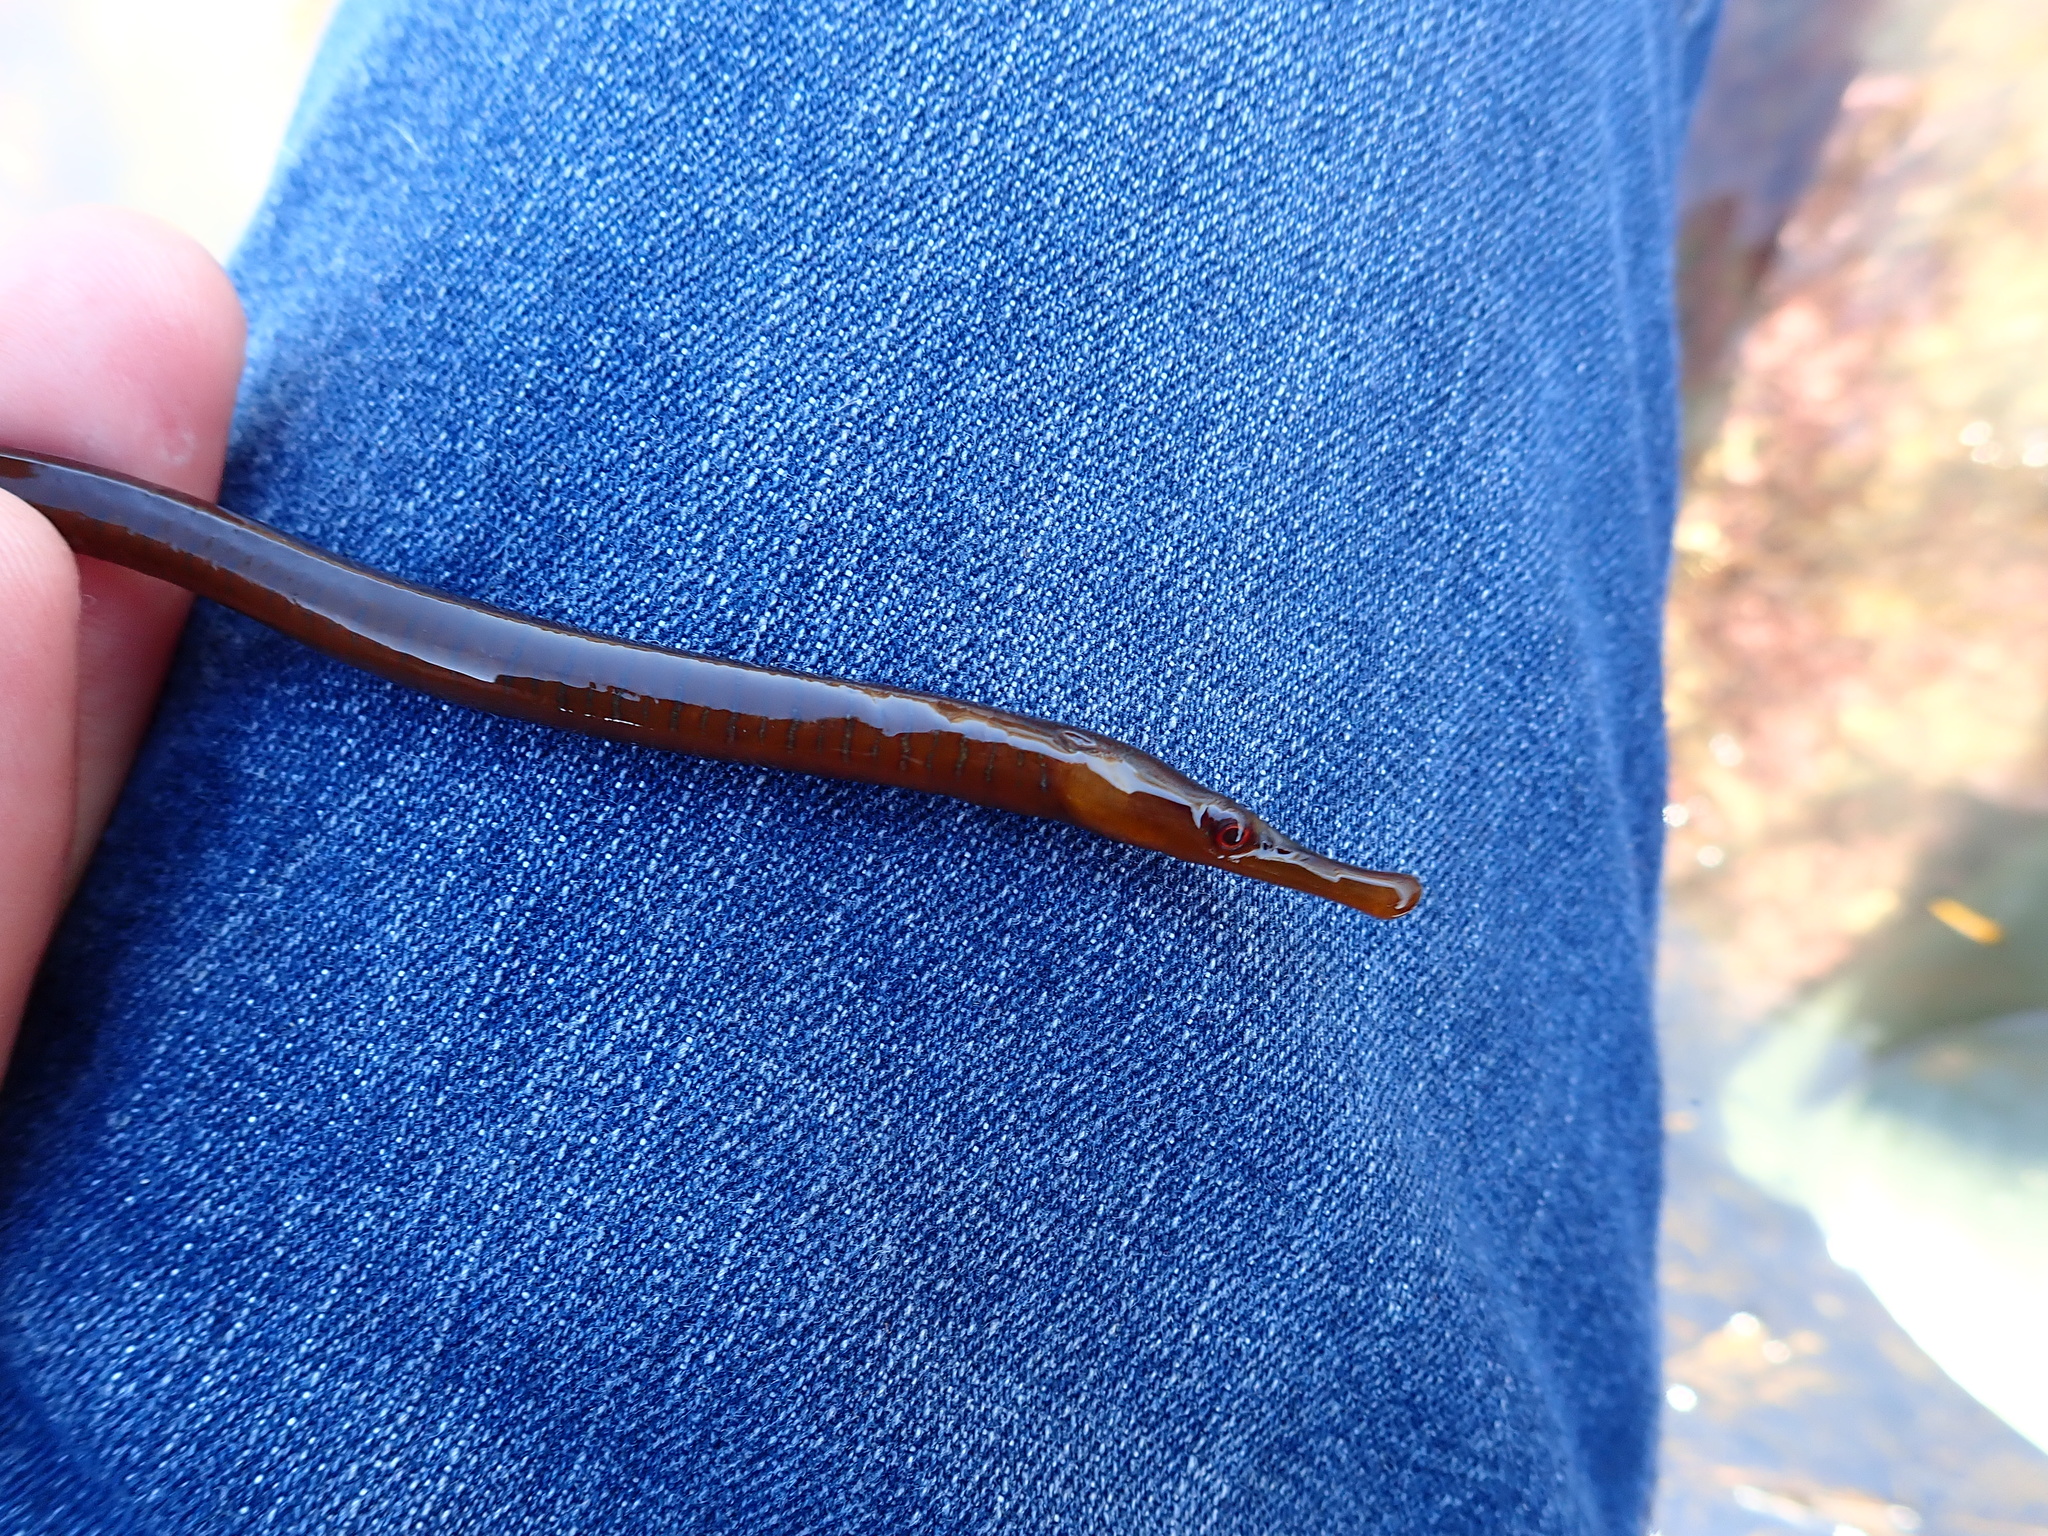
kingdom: Animalia
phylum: Chordata
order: Syngnathiformes
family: Syngnathidae
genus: Entelurus
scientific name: Entelurus aequoreus
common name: Snake pipefish
